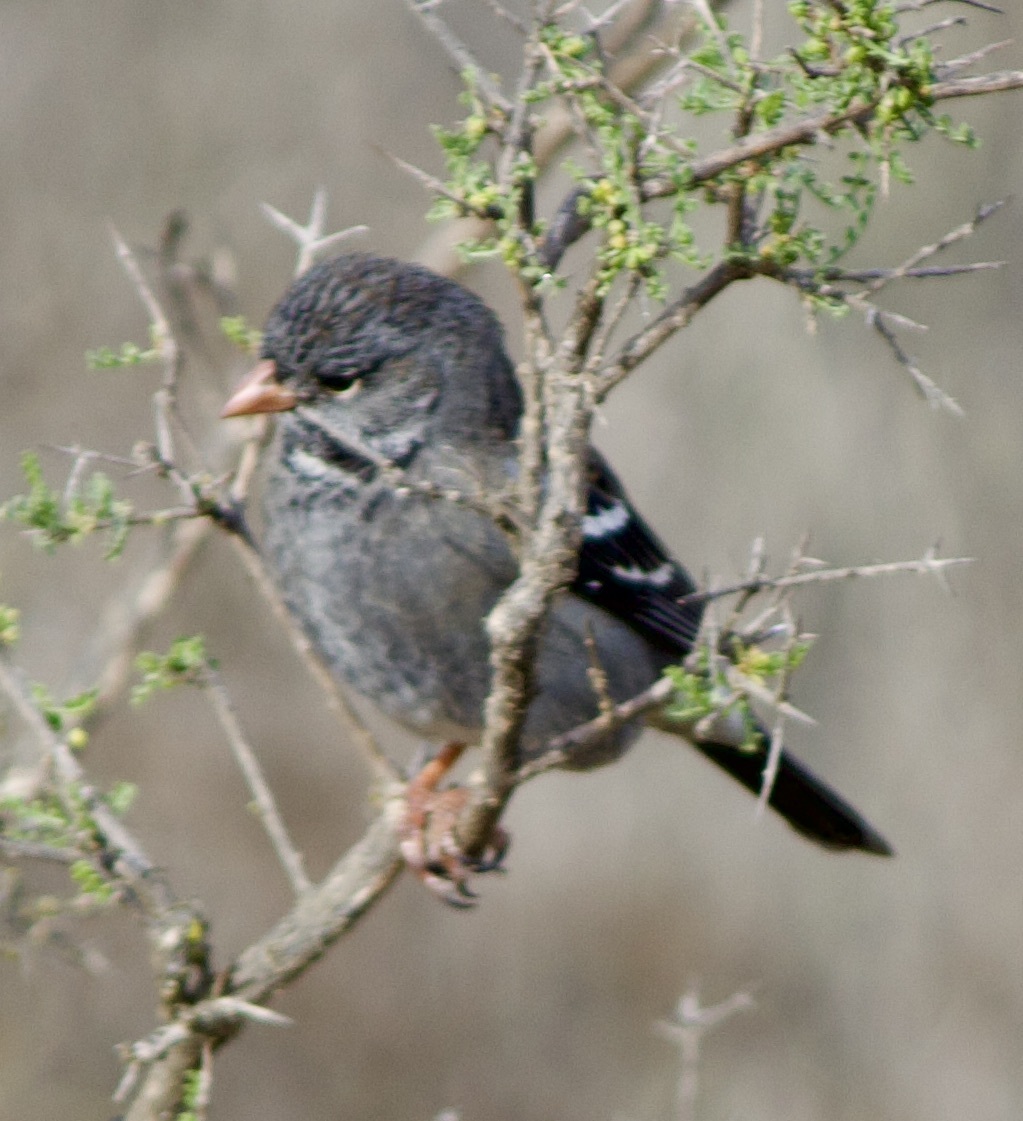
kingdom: Animalia
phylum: Chordata
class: Aves
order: Passeriformes
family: Thraupidae
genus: Rhopospina
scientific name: Rhopospina fruticeti
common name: Mourning sierra finch
